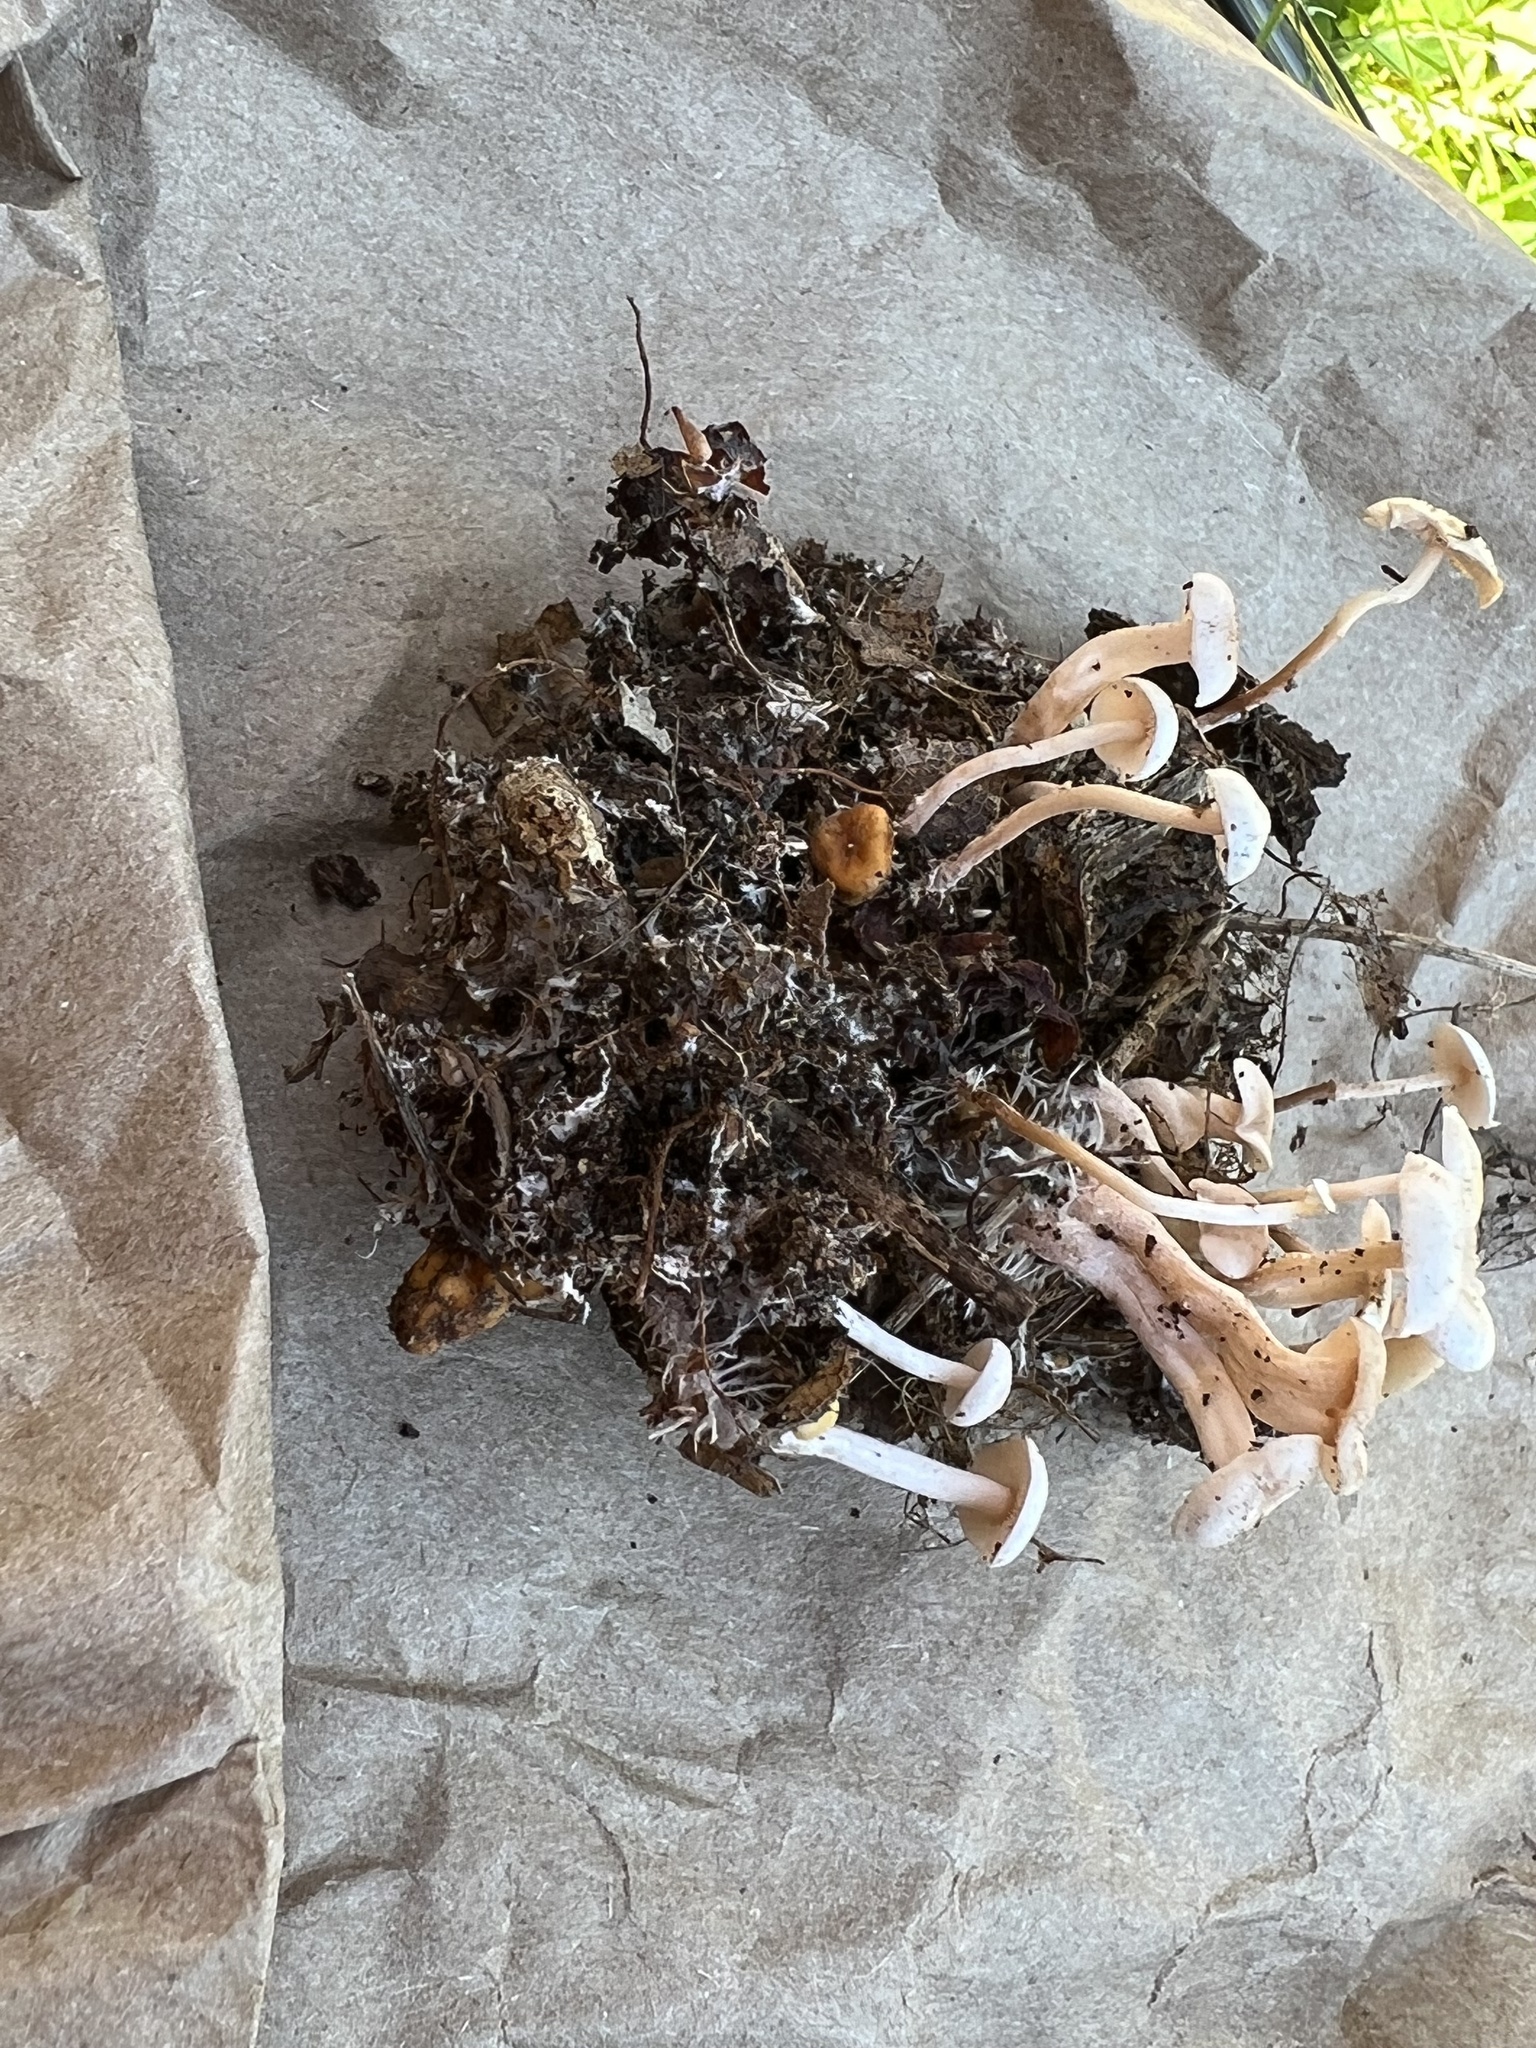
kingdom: Fungi
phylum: Basidiomycota
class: Agaricomycetes
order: Agaricales
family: Tricholomataceae
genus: Collybia
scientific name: Collybia cookei
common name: Splitpea shanklet
